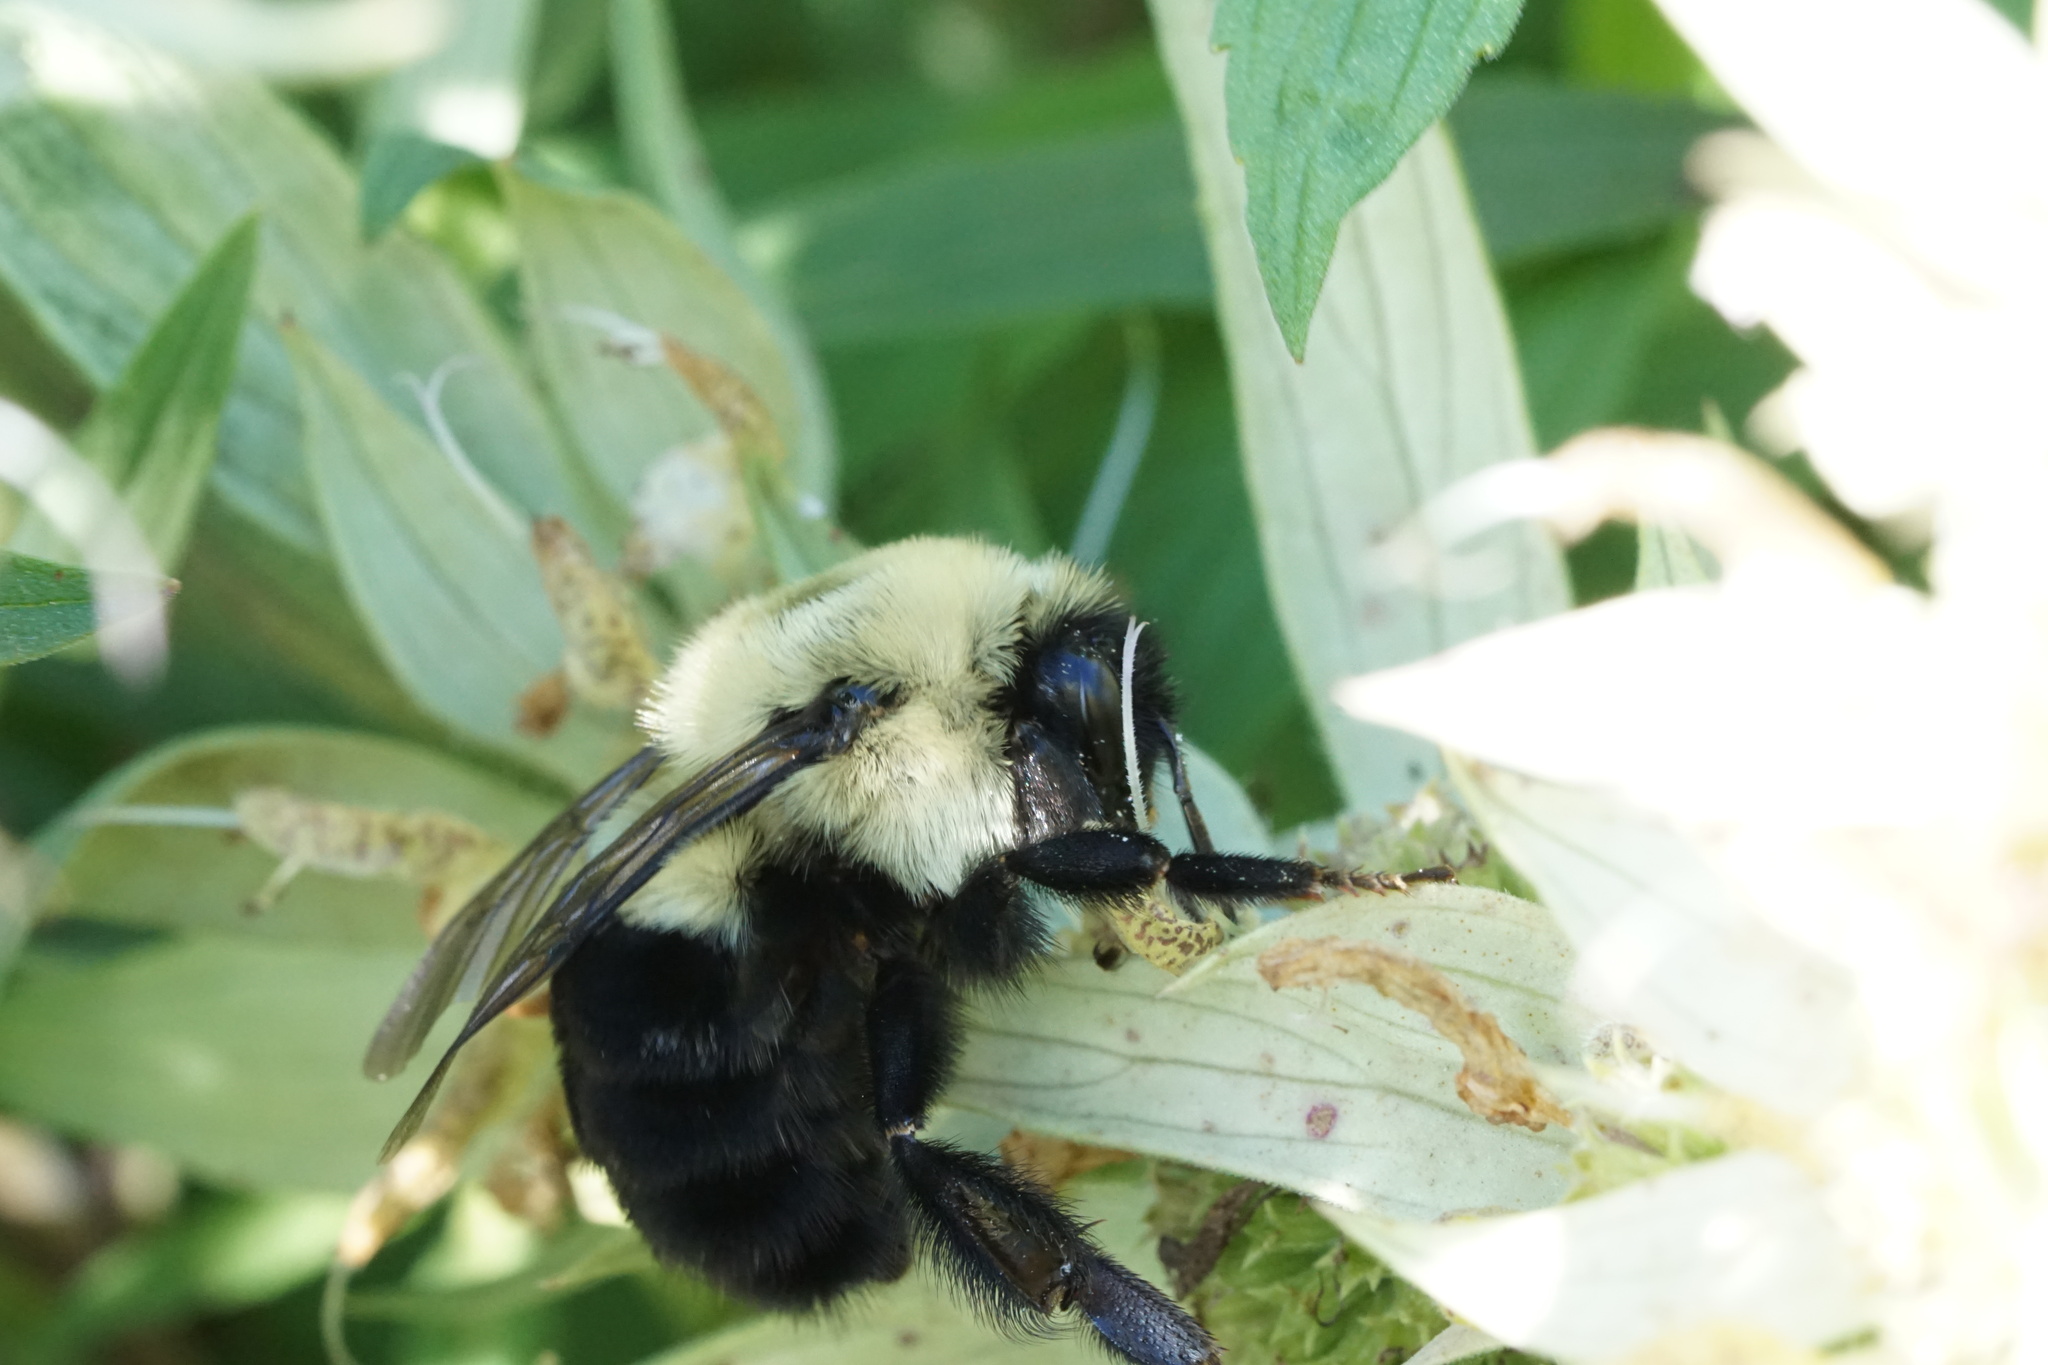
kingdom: Animalia
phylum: Arthropoda
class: Insecta
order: Hymenoptera
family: Apidae
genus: Bombus
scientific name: Bombus impatiens
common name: Common eastern bumble bee
